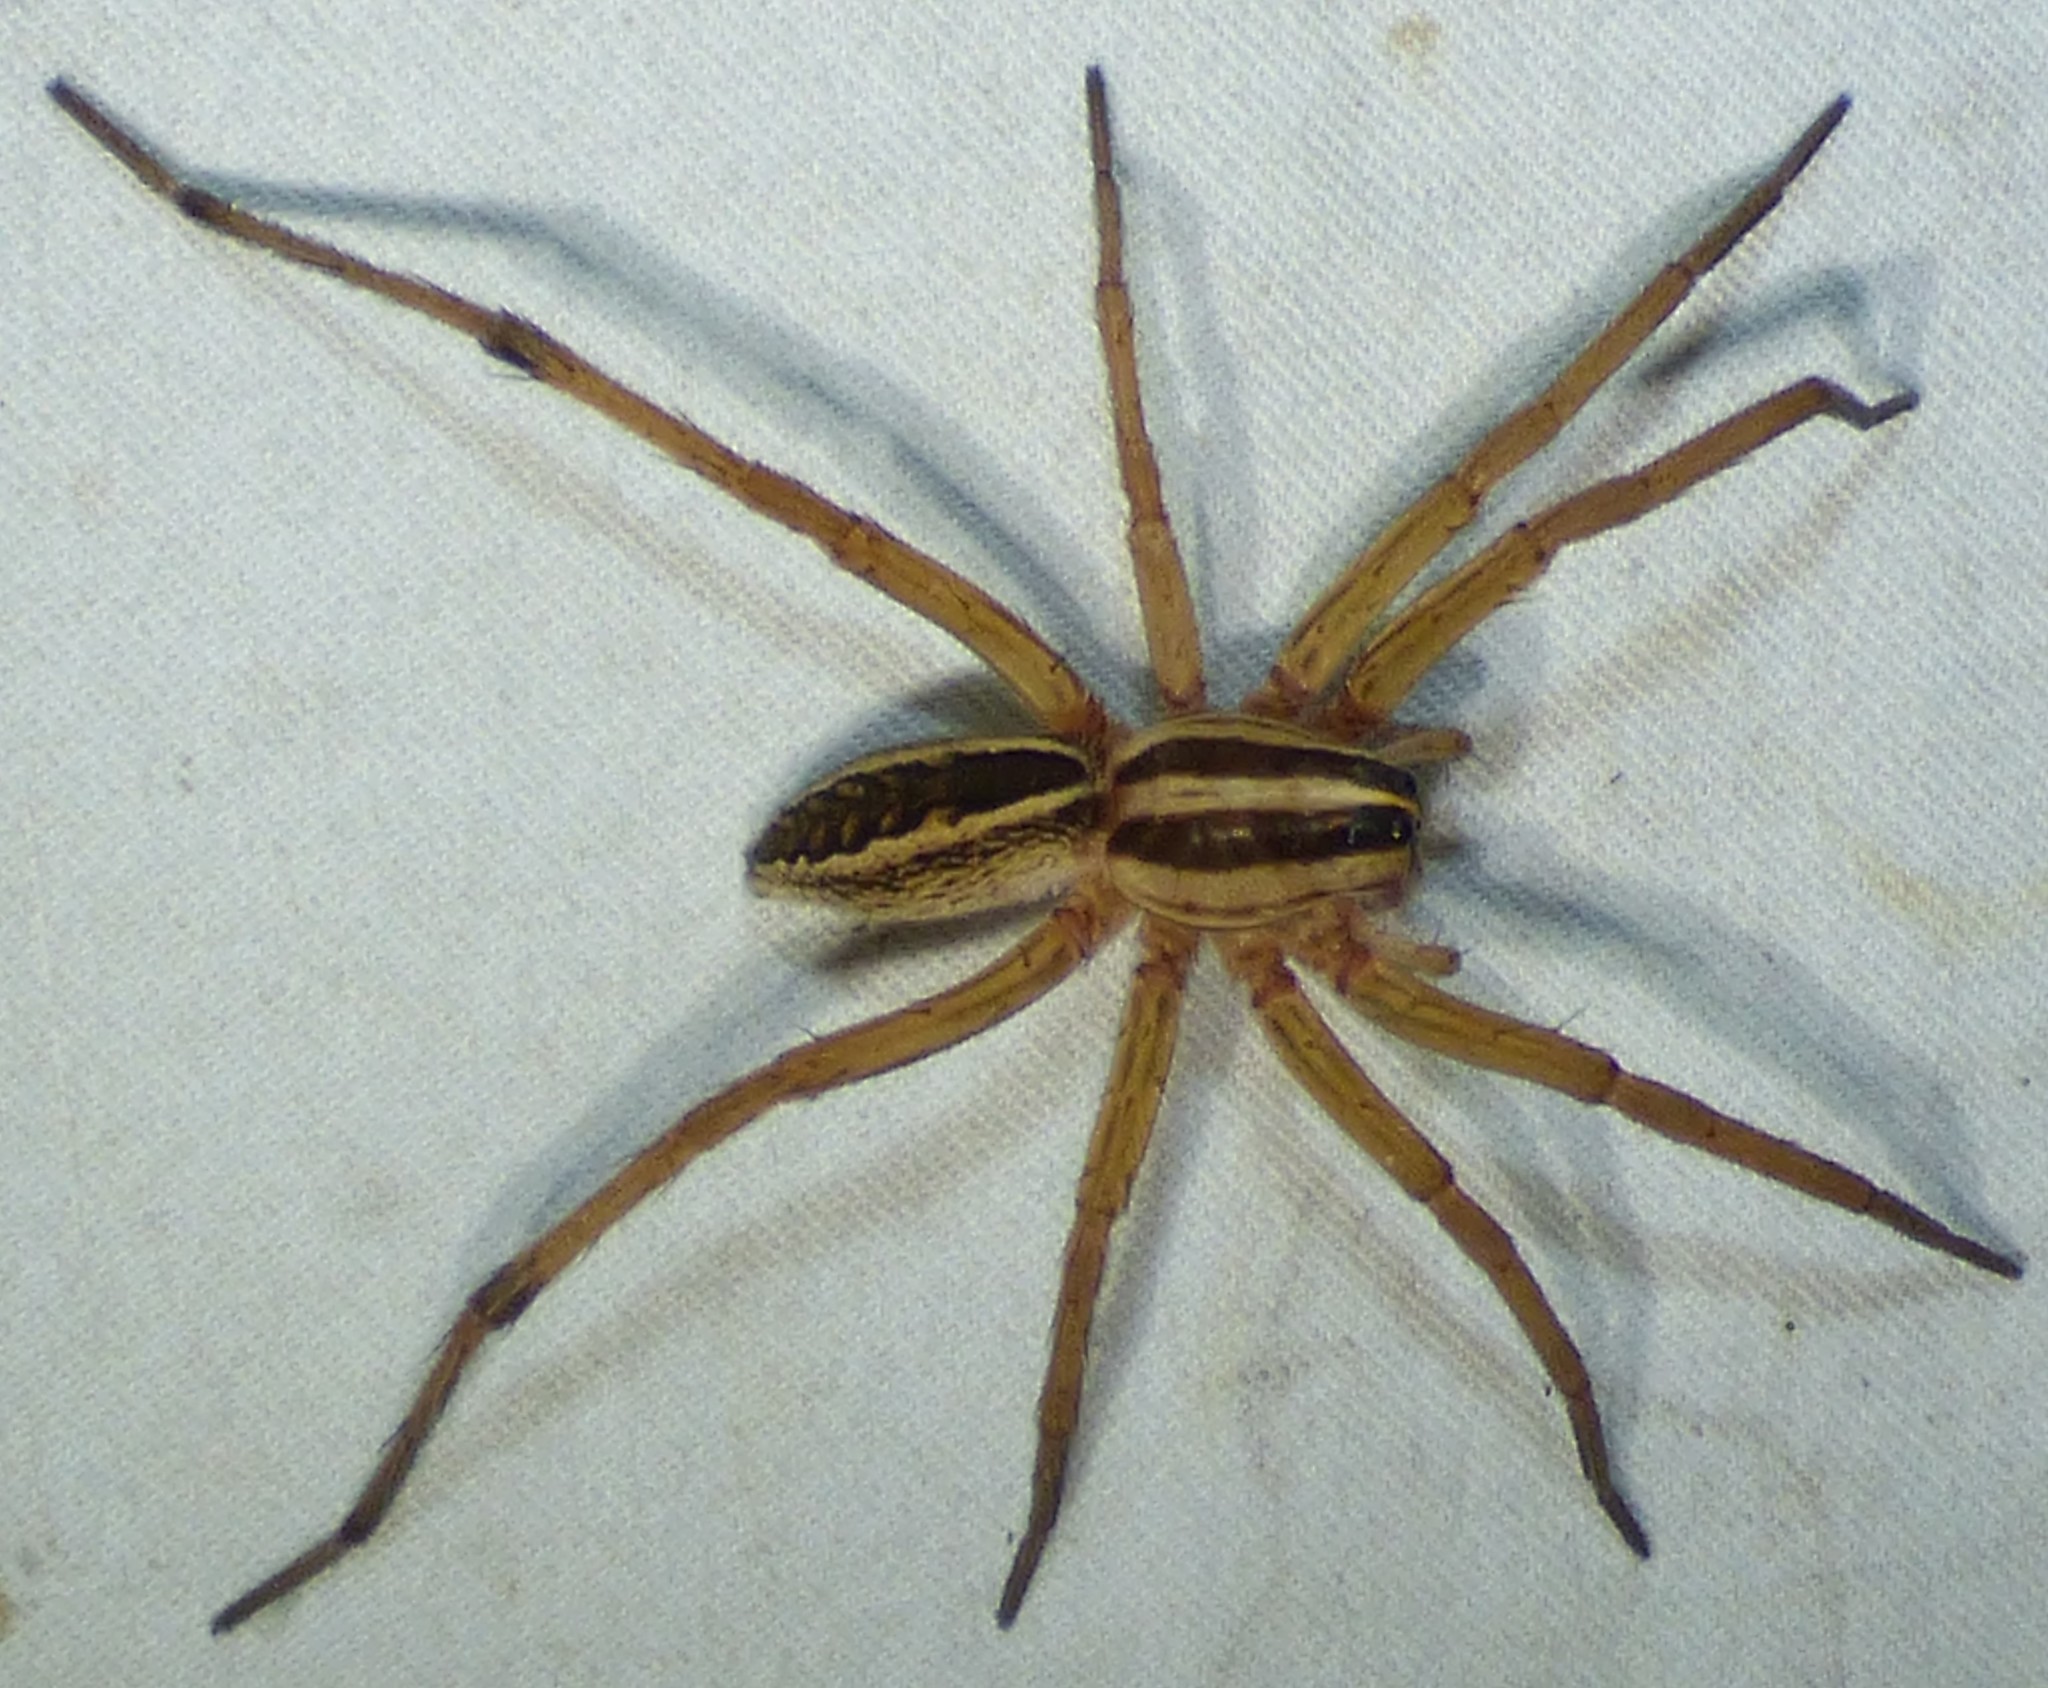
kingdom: Animalia
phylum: Arthropoda
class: Arachnida
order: Araneae
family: Lycosidae
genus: Rabidosa
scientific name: Rabidosa rabida
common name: Rabid wolf spider
